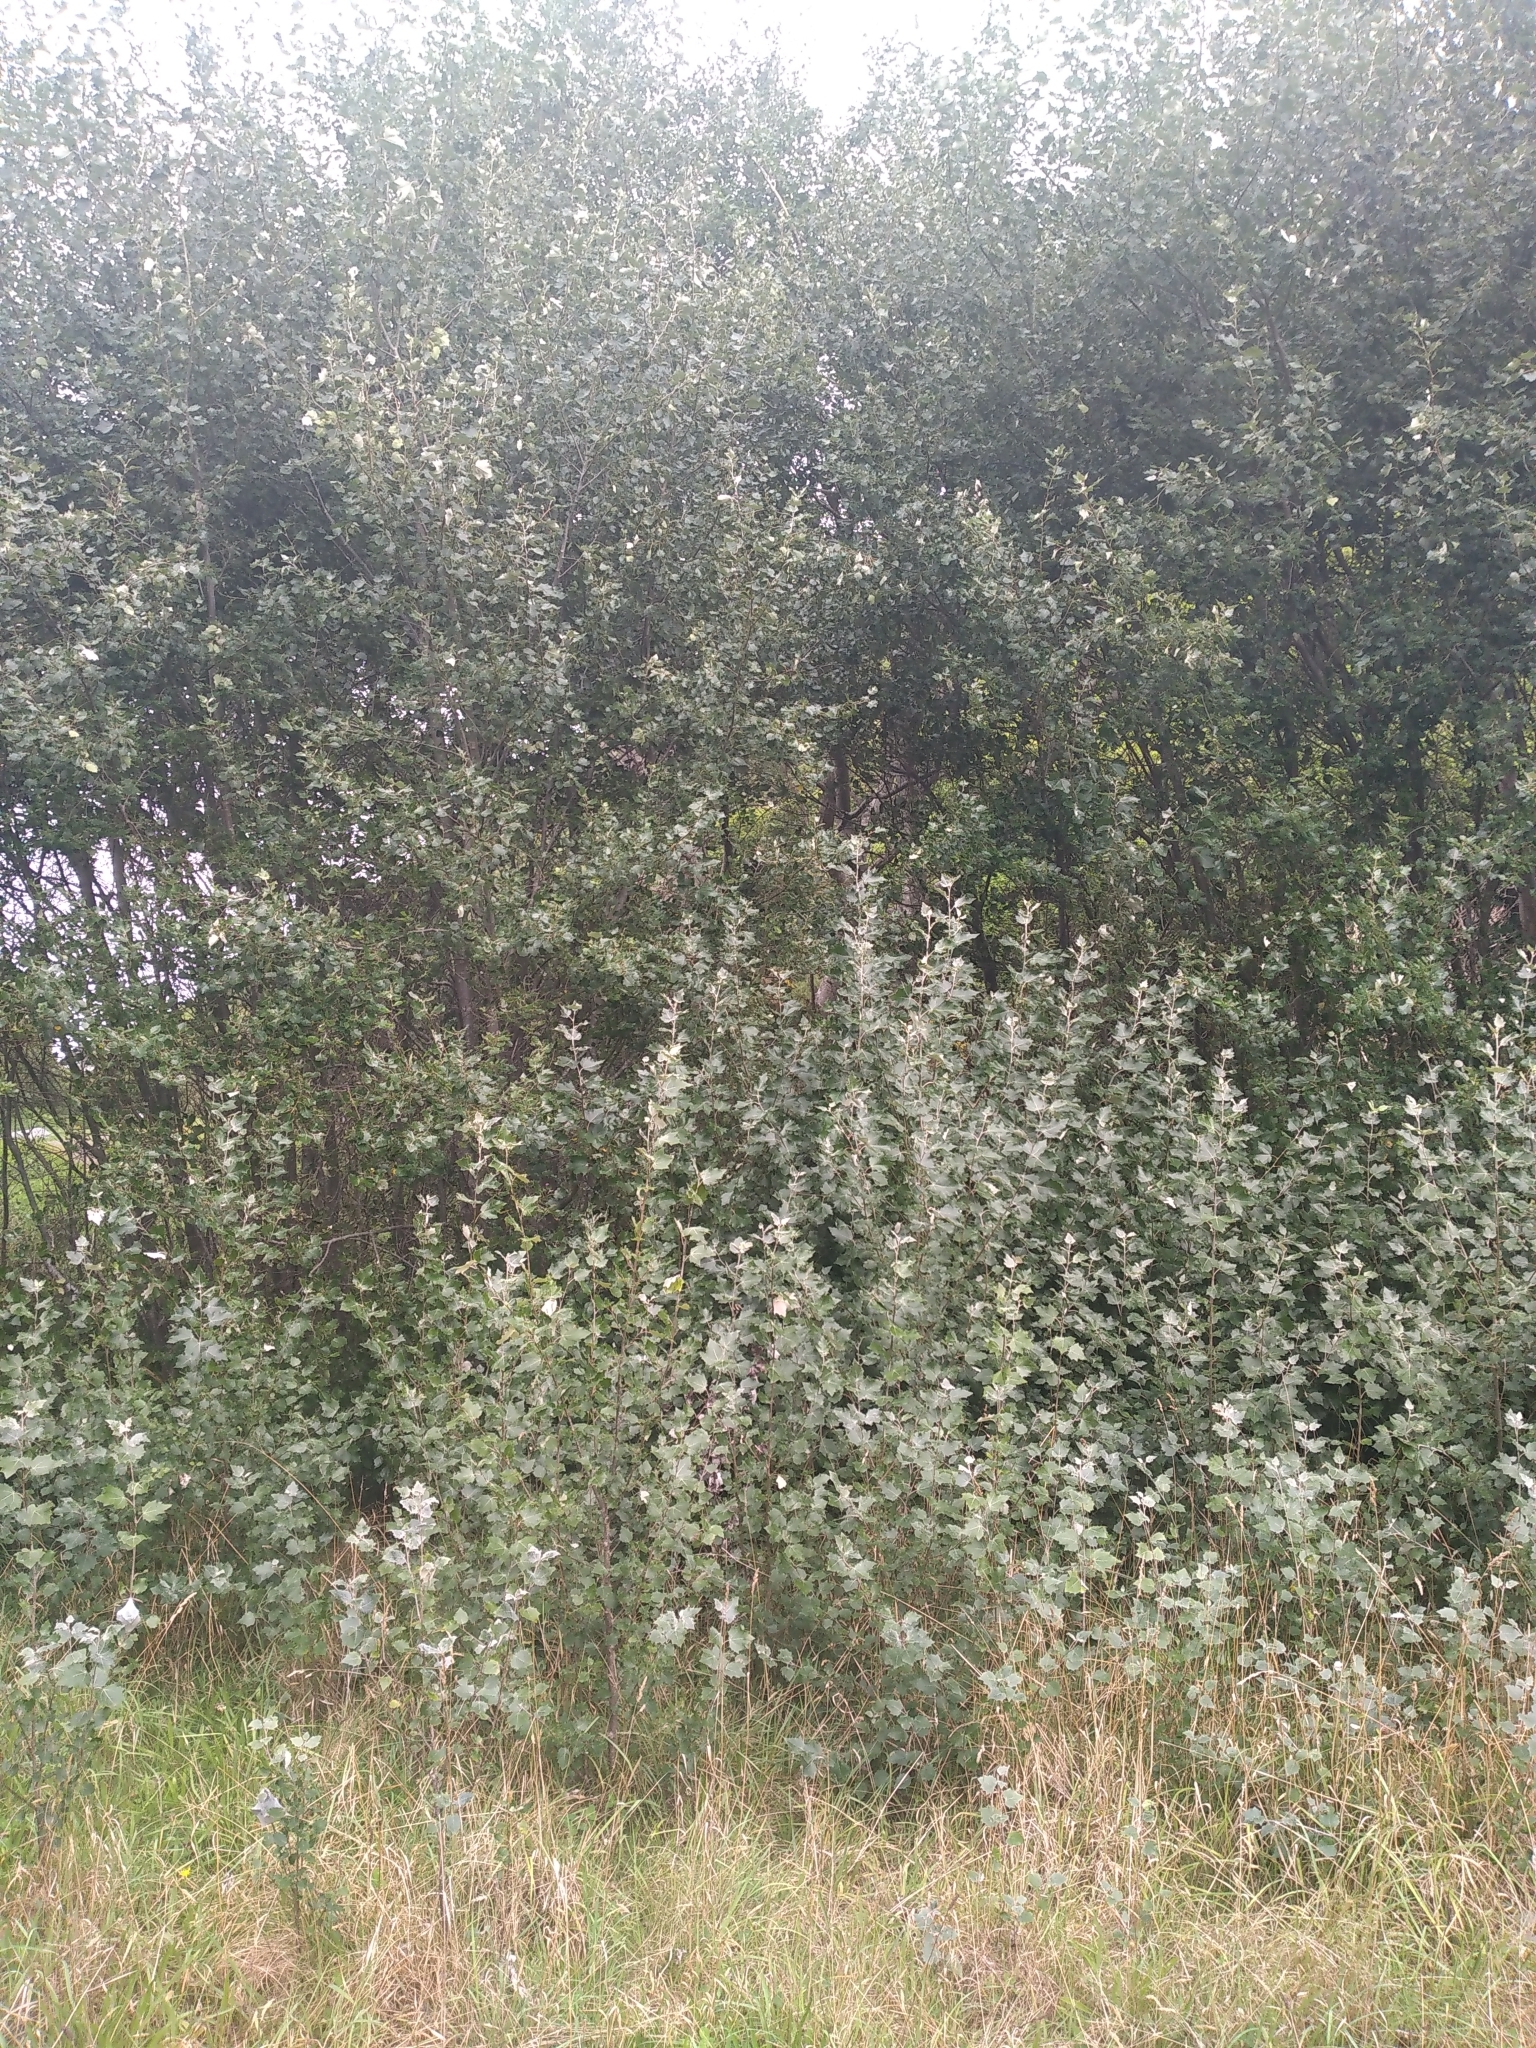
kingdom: Plantae
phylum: Tracheophyta
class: Magnoliopsida
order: Malpighiales
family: Salicaceae
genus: Populus
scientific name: Populus alba
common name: White poplar
